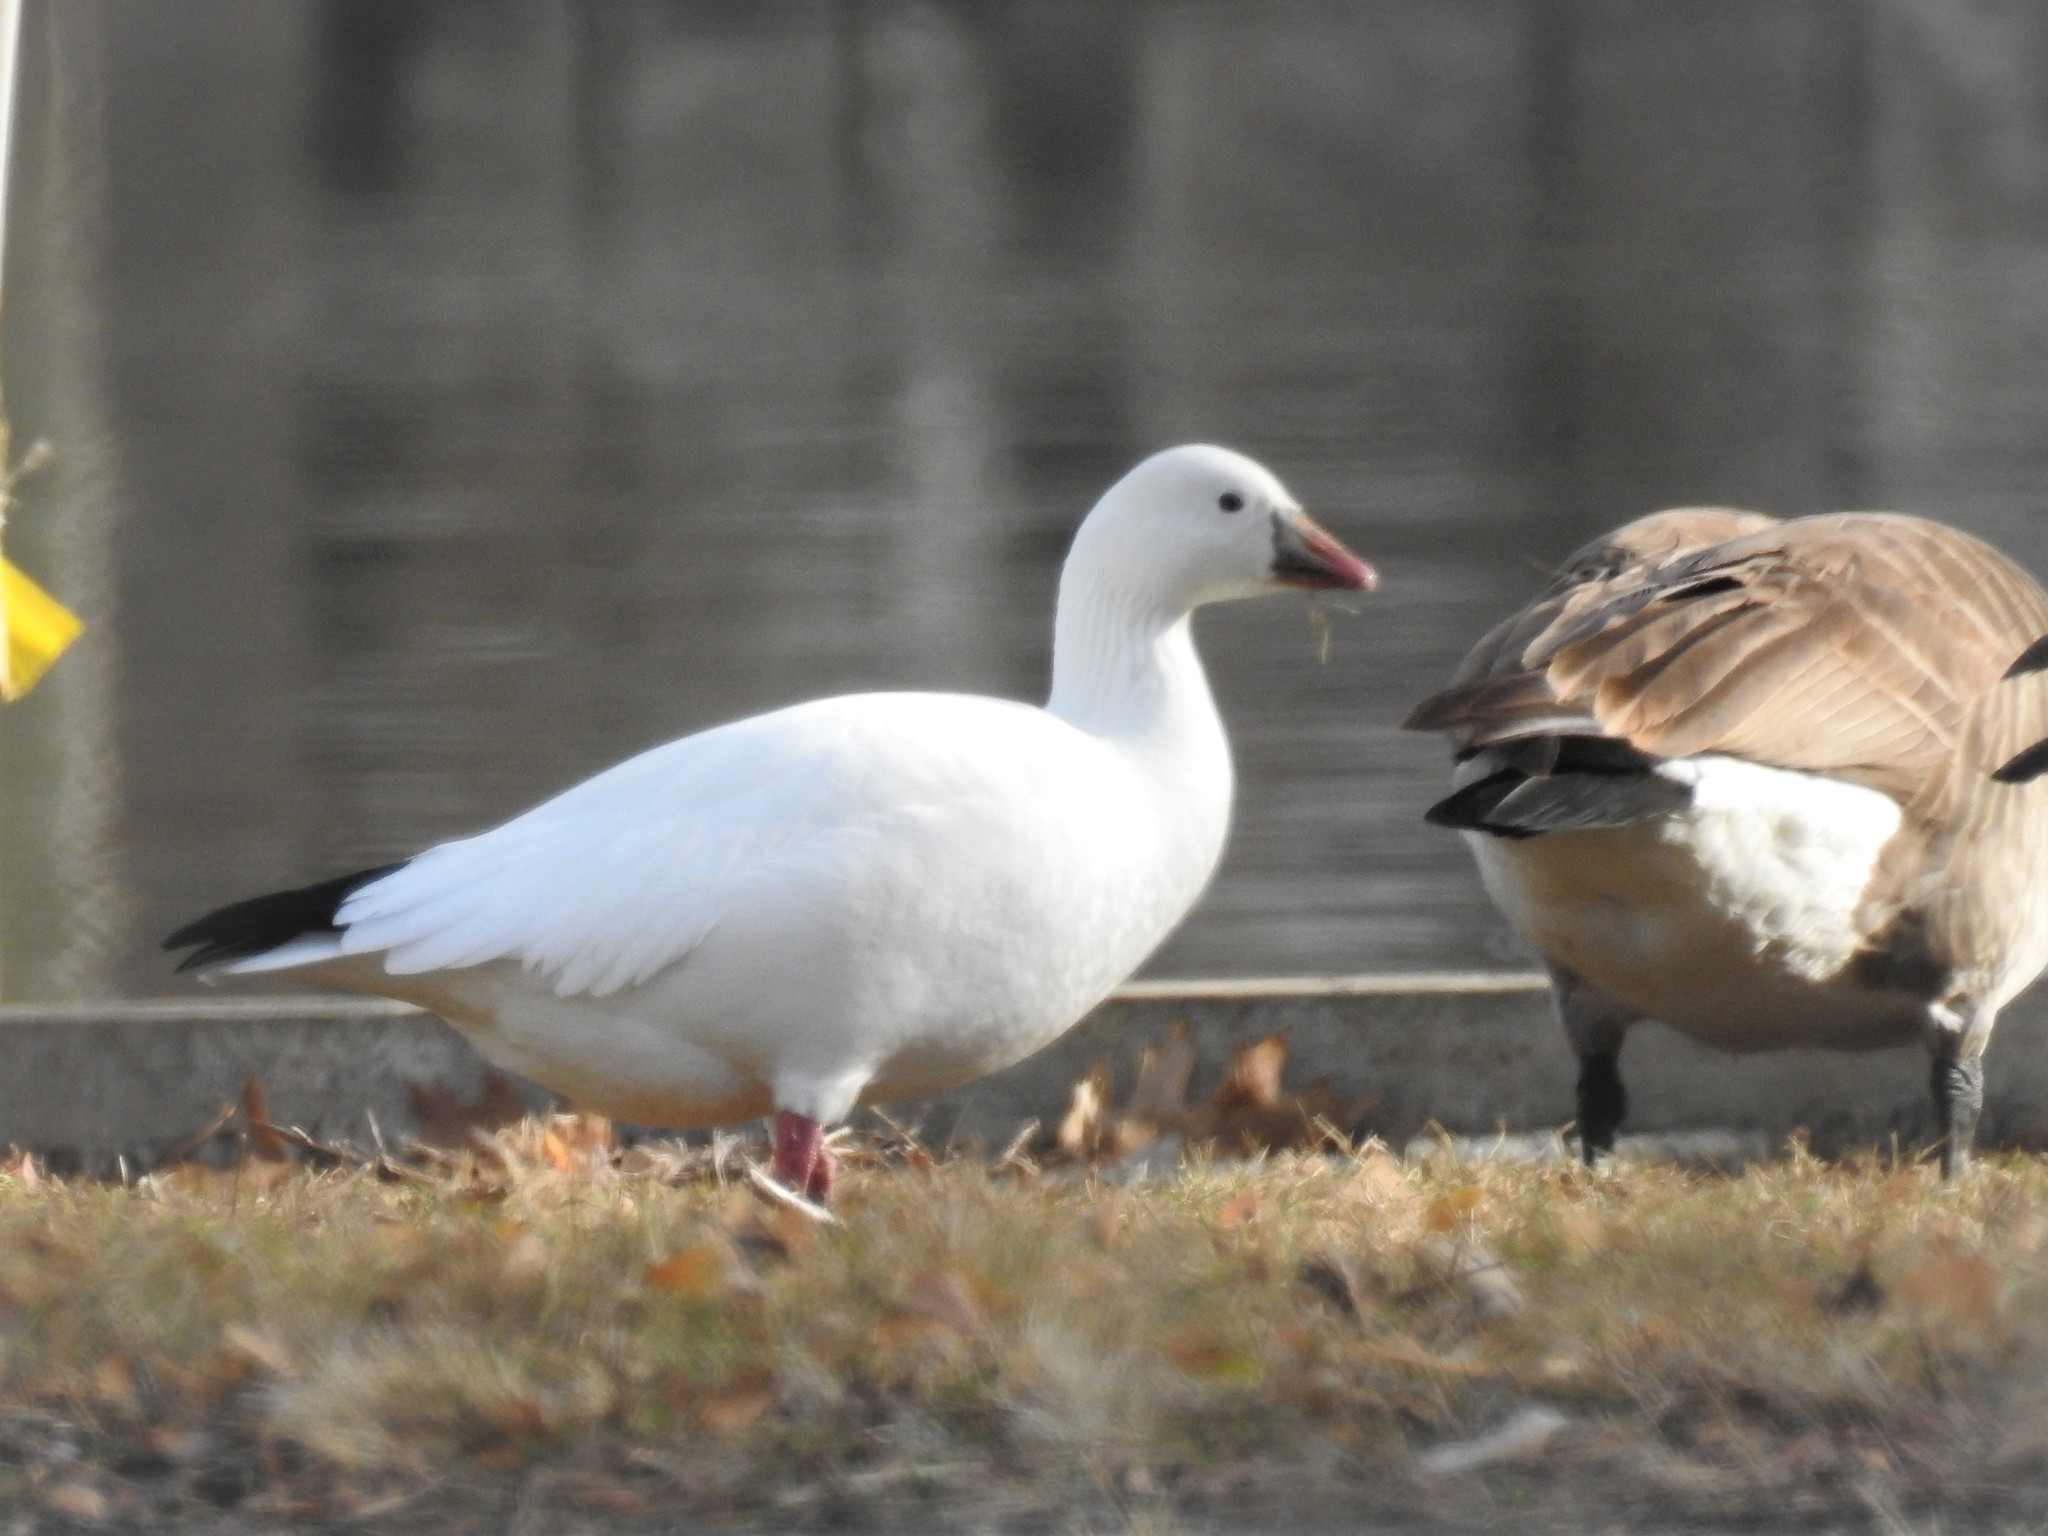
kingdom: Animalia
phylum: Chordata
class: Aves
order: Anseriformes
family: Anatidae
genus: Anser
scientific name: Anser rossii
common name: Ross's goose
